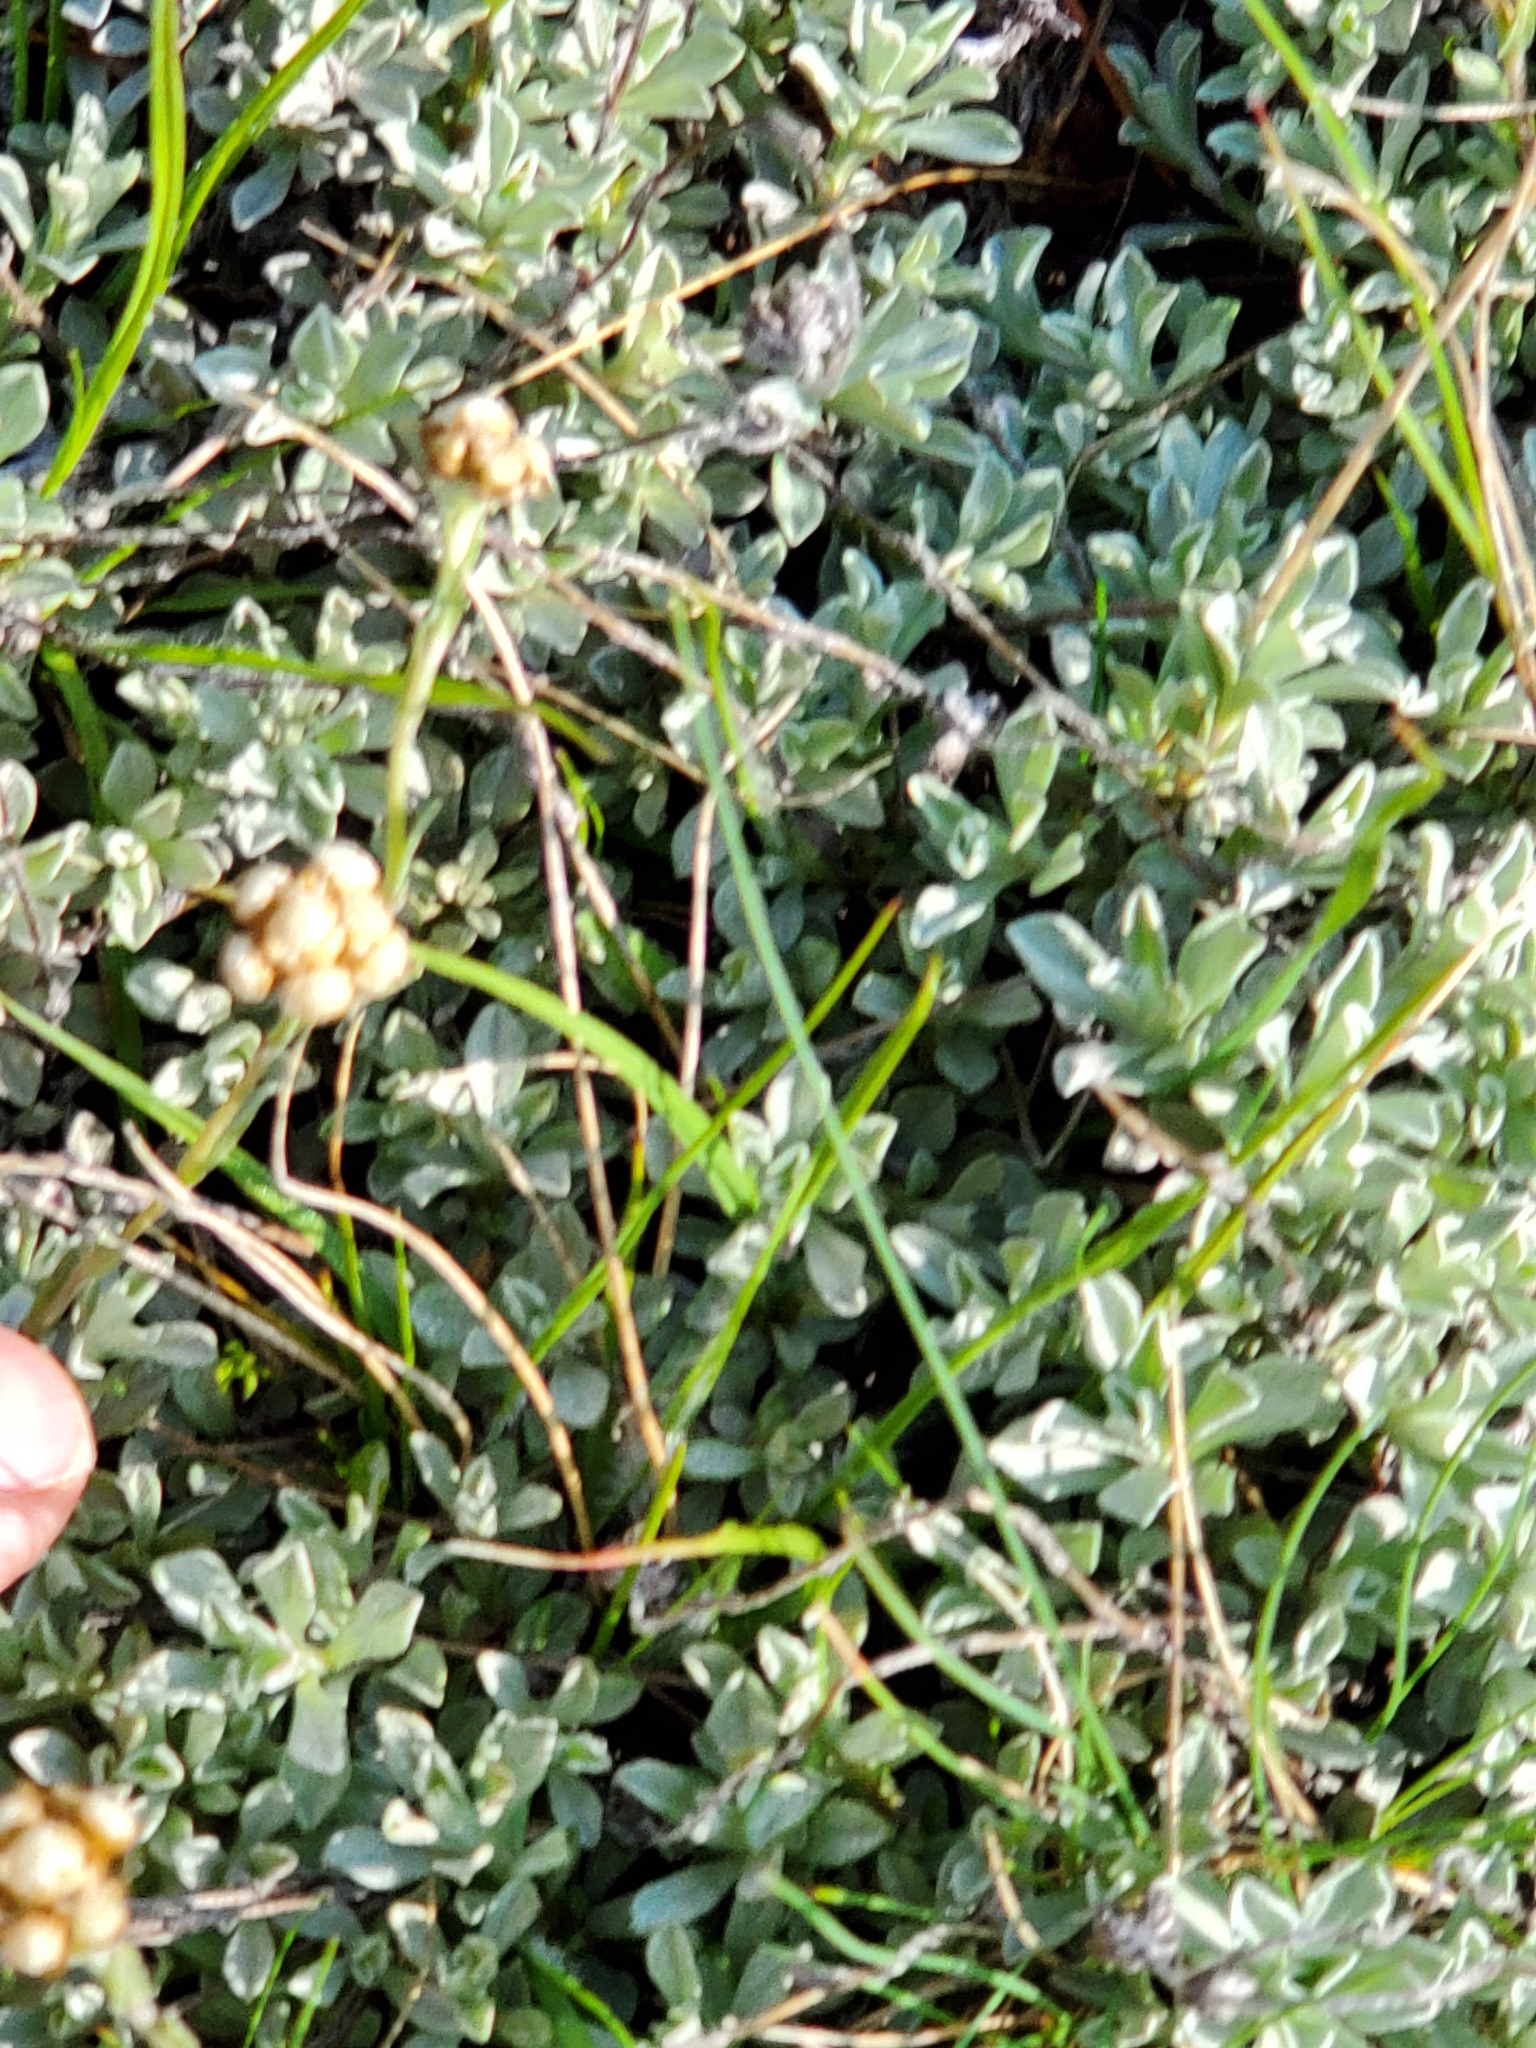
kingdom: Plantae
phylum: Tracheophyta
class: Magnoliopsida
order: Asterales
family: Asteraceae
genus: Antennaria
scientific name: Antennaria umbrinella
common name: Brown pussytoes
